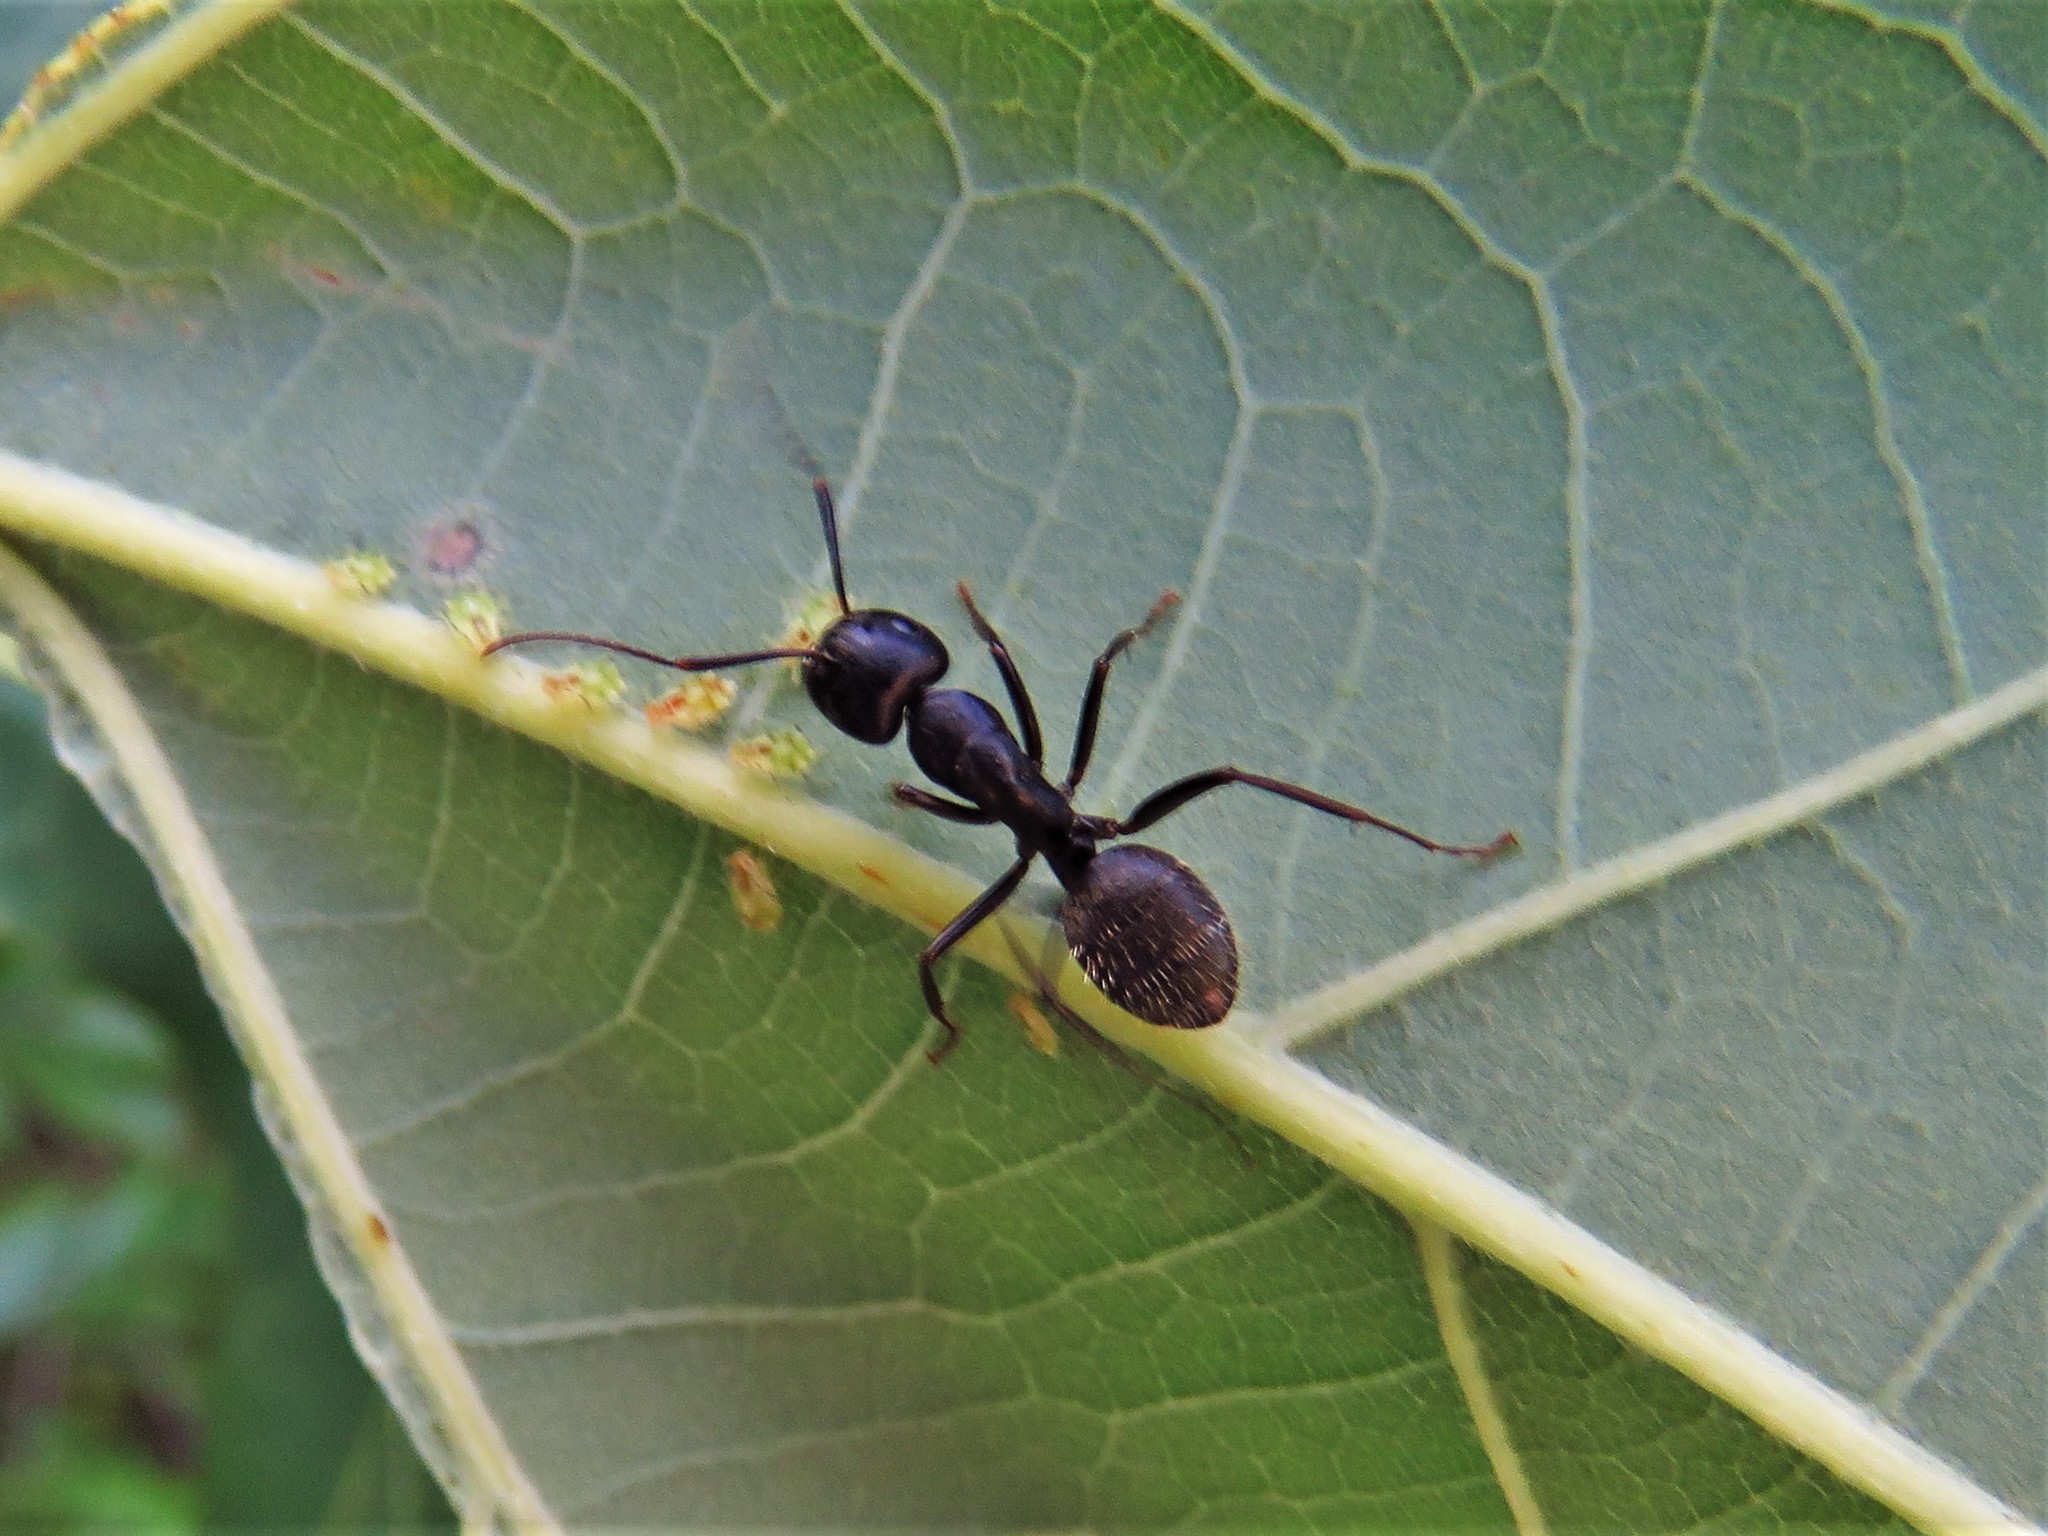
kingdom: Animalia
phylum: Arthropoda
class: Insecta
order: Hymenoptera
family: Formicidae
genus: Camponotus
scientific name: Camponotus pennsylvanicus
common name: Black carpenter ant
